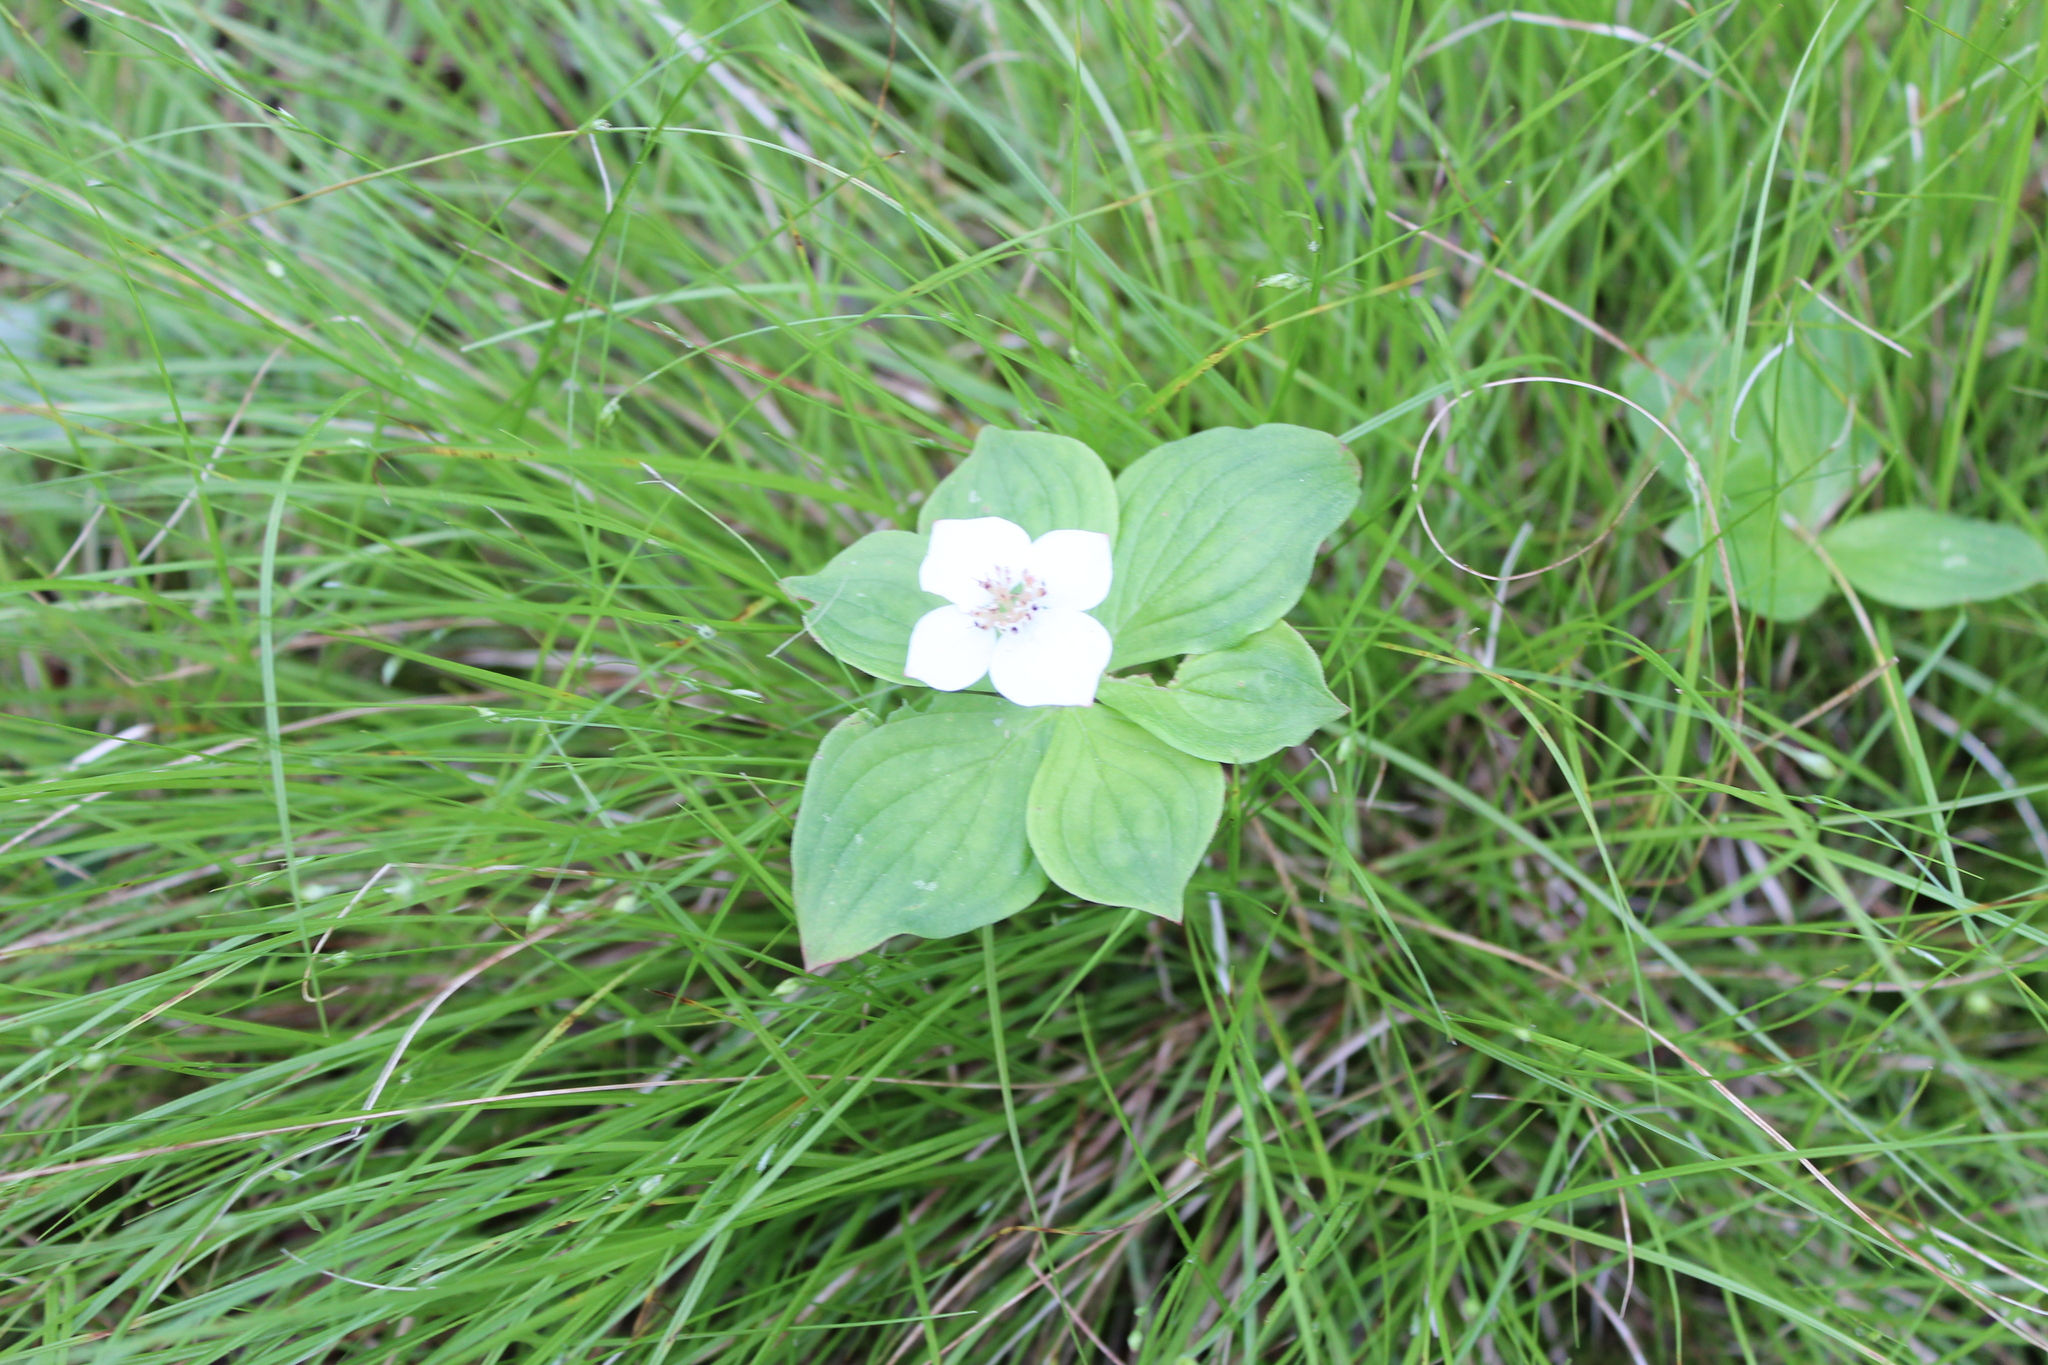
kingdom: Plantae
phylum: Tracheophyta
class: Magnoliopsida
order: Cornales
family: Cornaceae
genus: Cornus
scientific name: Cornus canadensis
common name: Creeping dogwood
